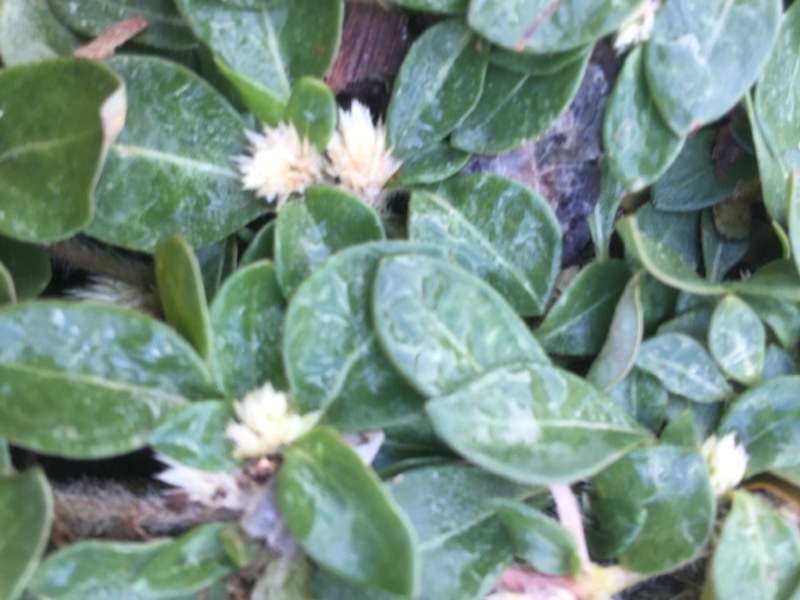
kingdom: Plantae
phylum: Tracheophyta
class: Magnoliopsida
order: Caryophyllales
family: Amaranthaceae
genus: Alternanthera
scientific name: Alternanthera caracasana
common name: Washerwoman
